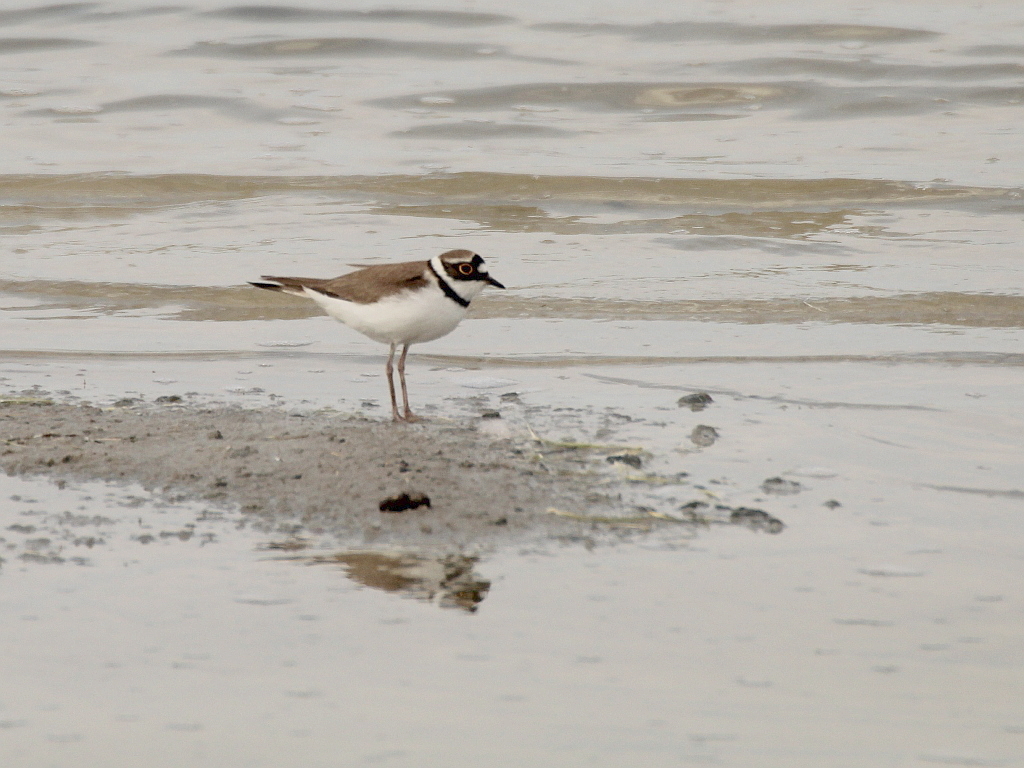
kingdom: Animalia
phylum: Chordata
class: Aves
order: Charadriiformes
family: Charadriidae
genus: Charadrius
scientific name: Charadrius dubius
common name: Little ringed plover
